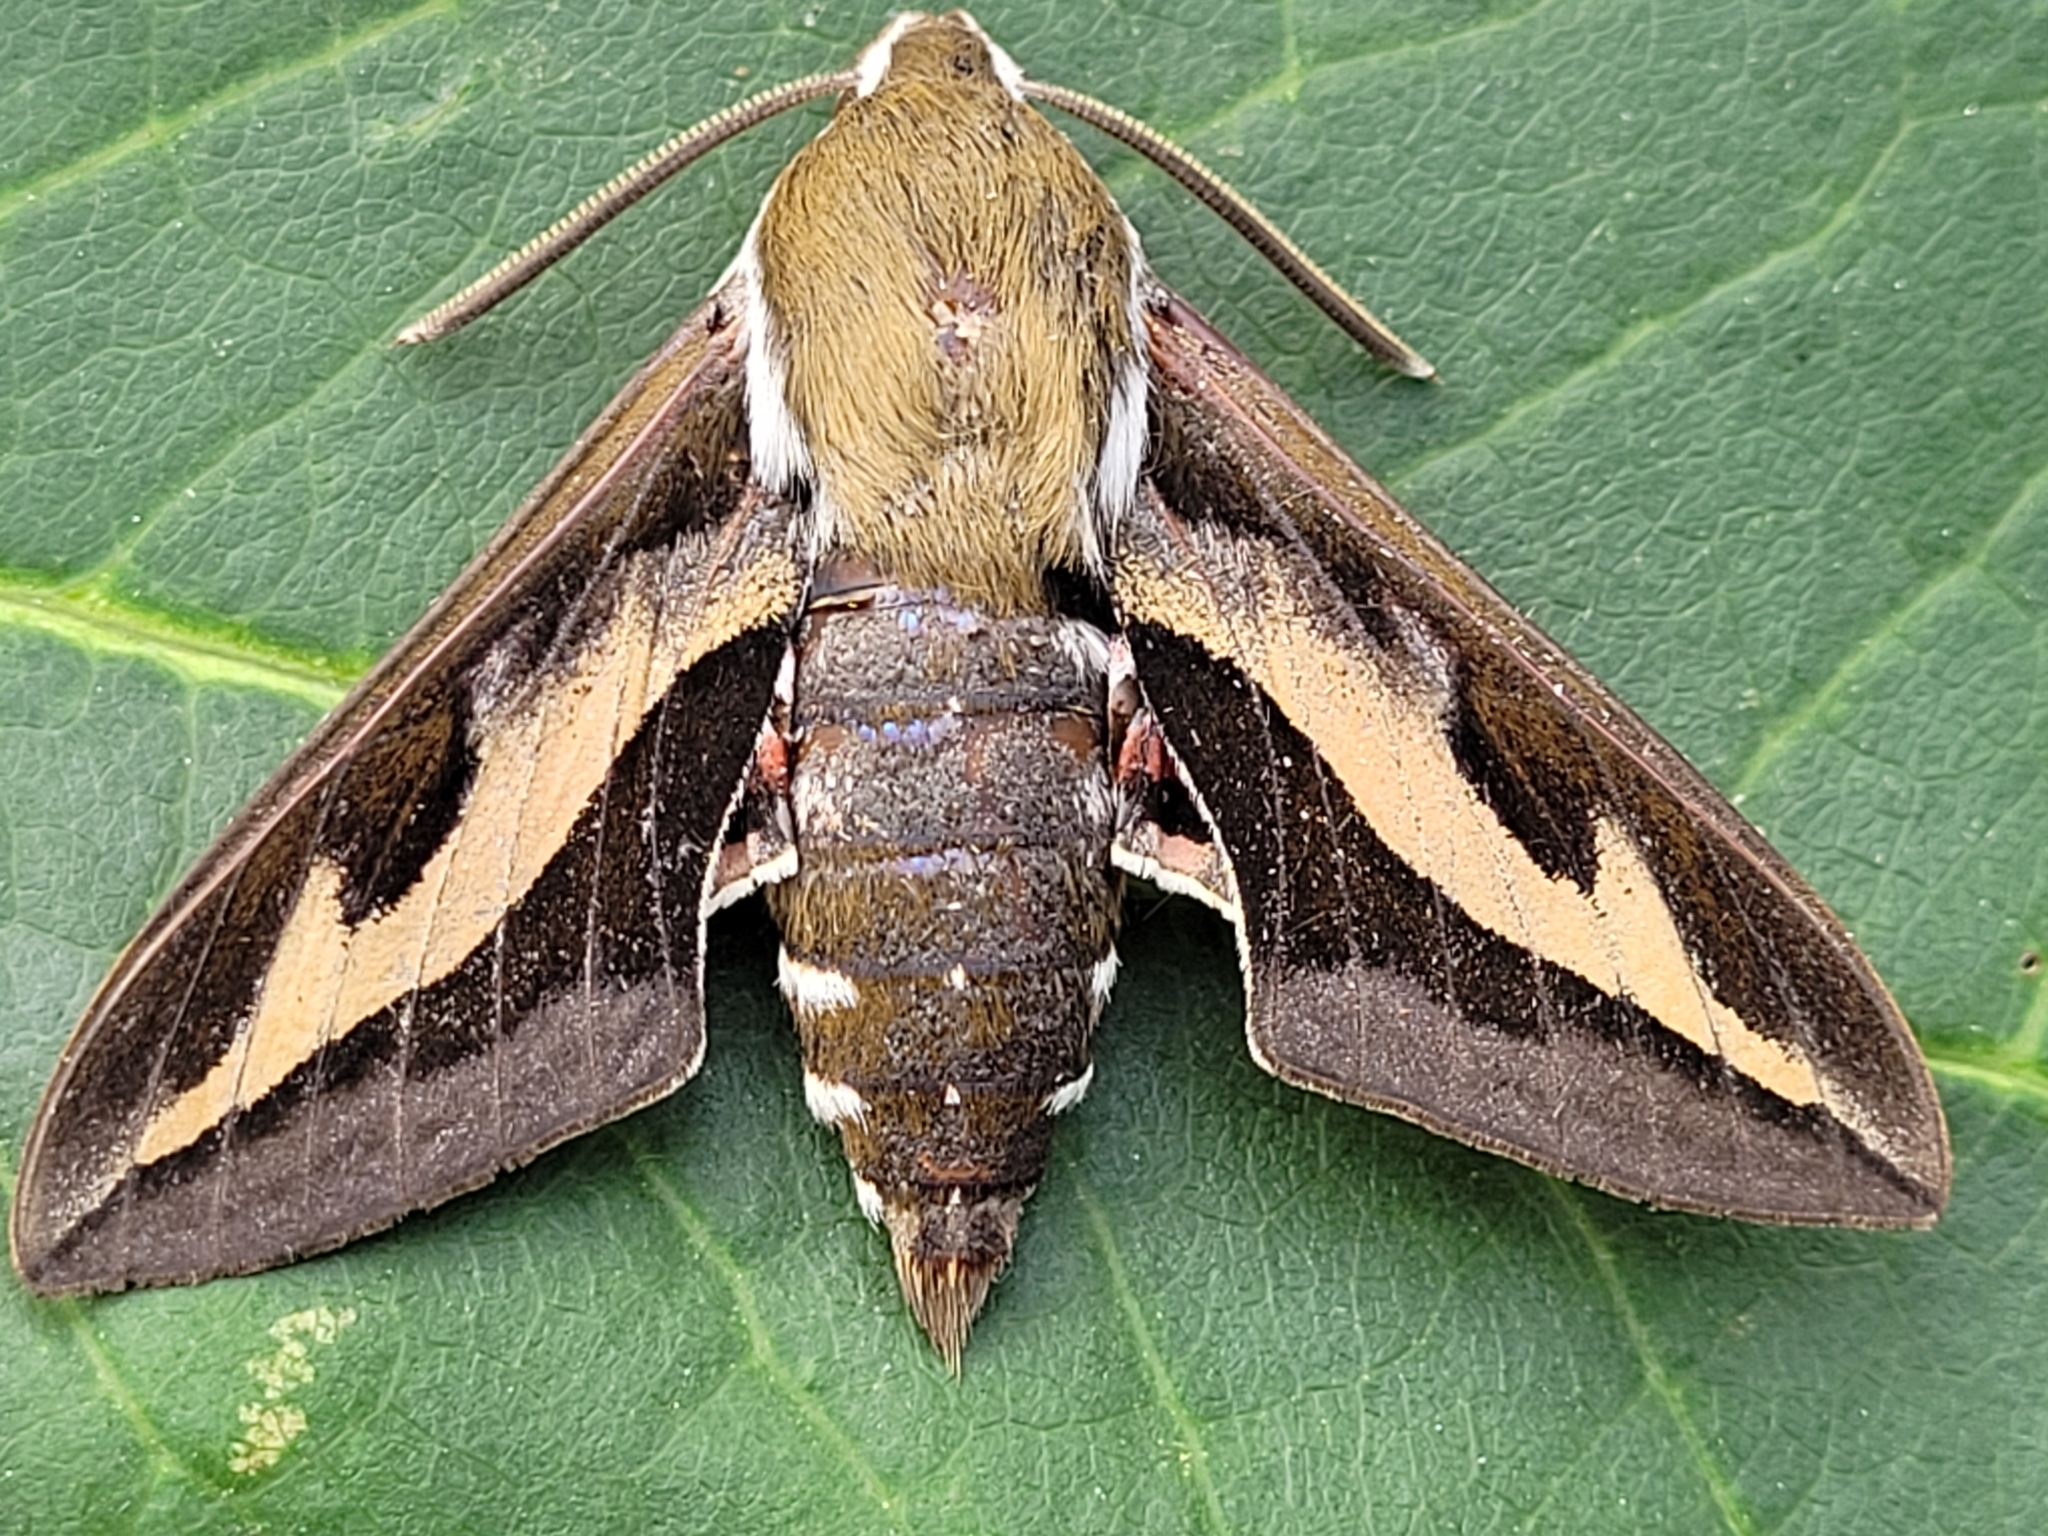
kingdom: Animalia
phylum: Arthropoda
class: Insecta
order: Lepidoptera
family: Sphingidae
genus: Hyles
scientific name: Hyles gallii
